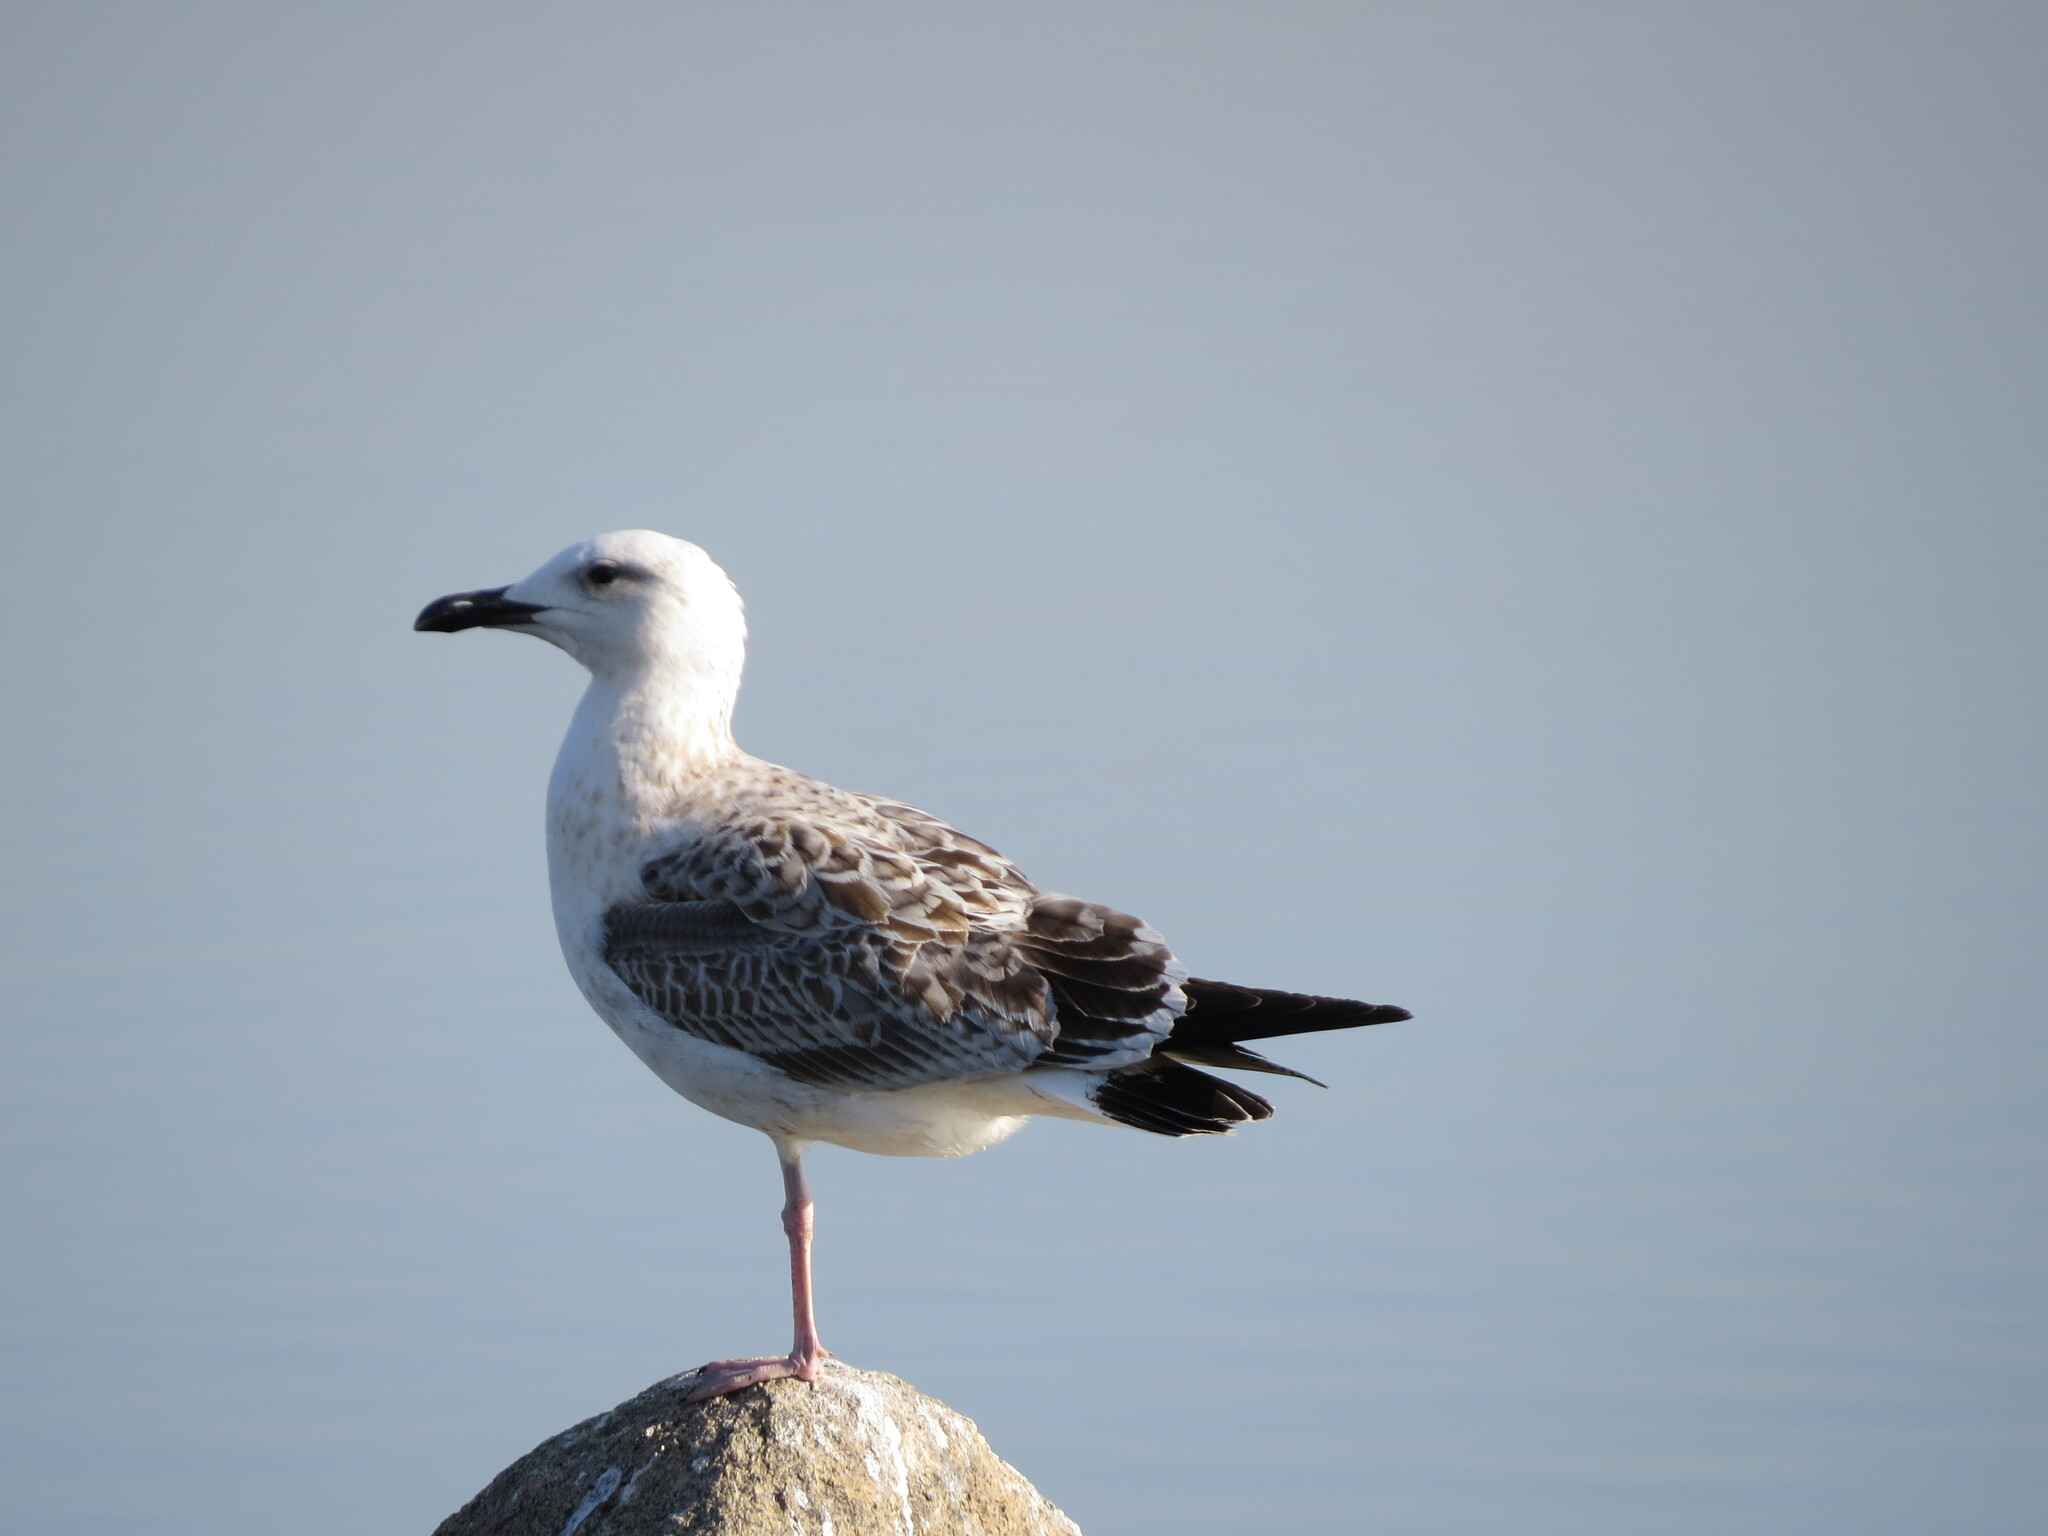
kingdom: Animalia
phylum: Chordata
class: Aves
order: Charadriiformes
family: Laridae
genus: Larus
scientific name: Larus fuscus
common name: Lesser black-backed gull
